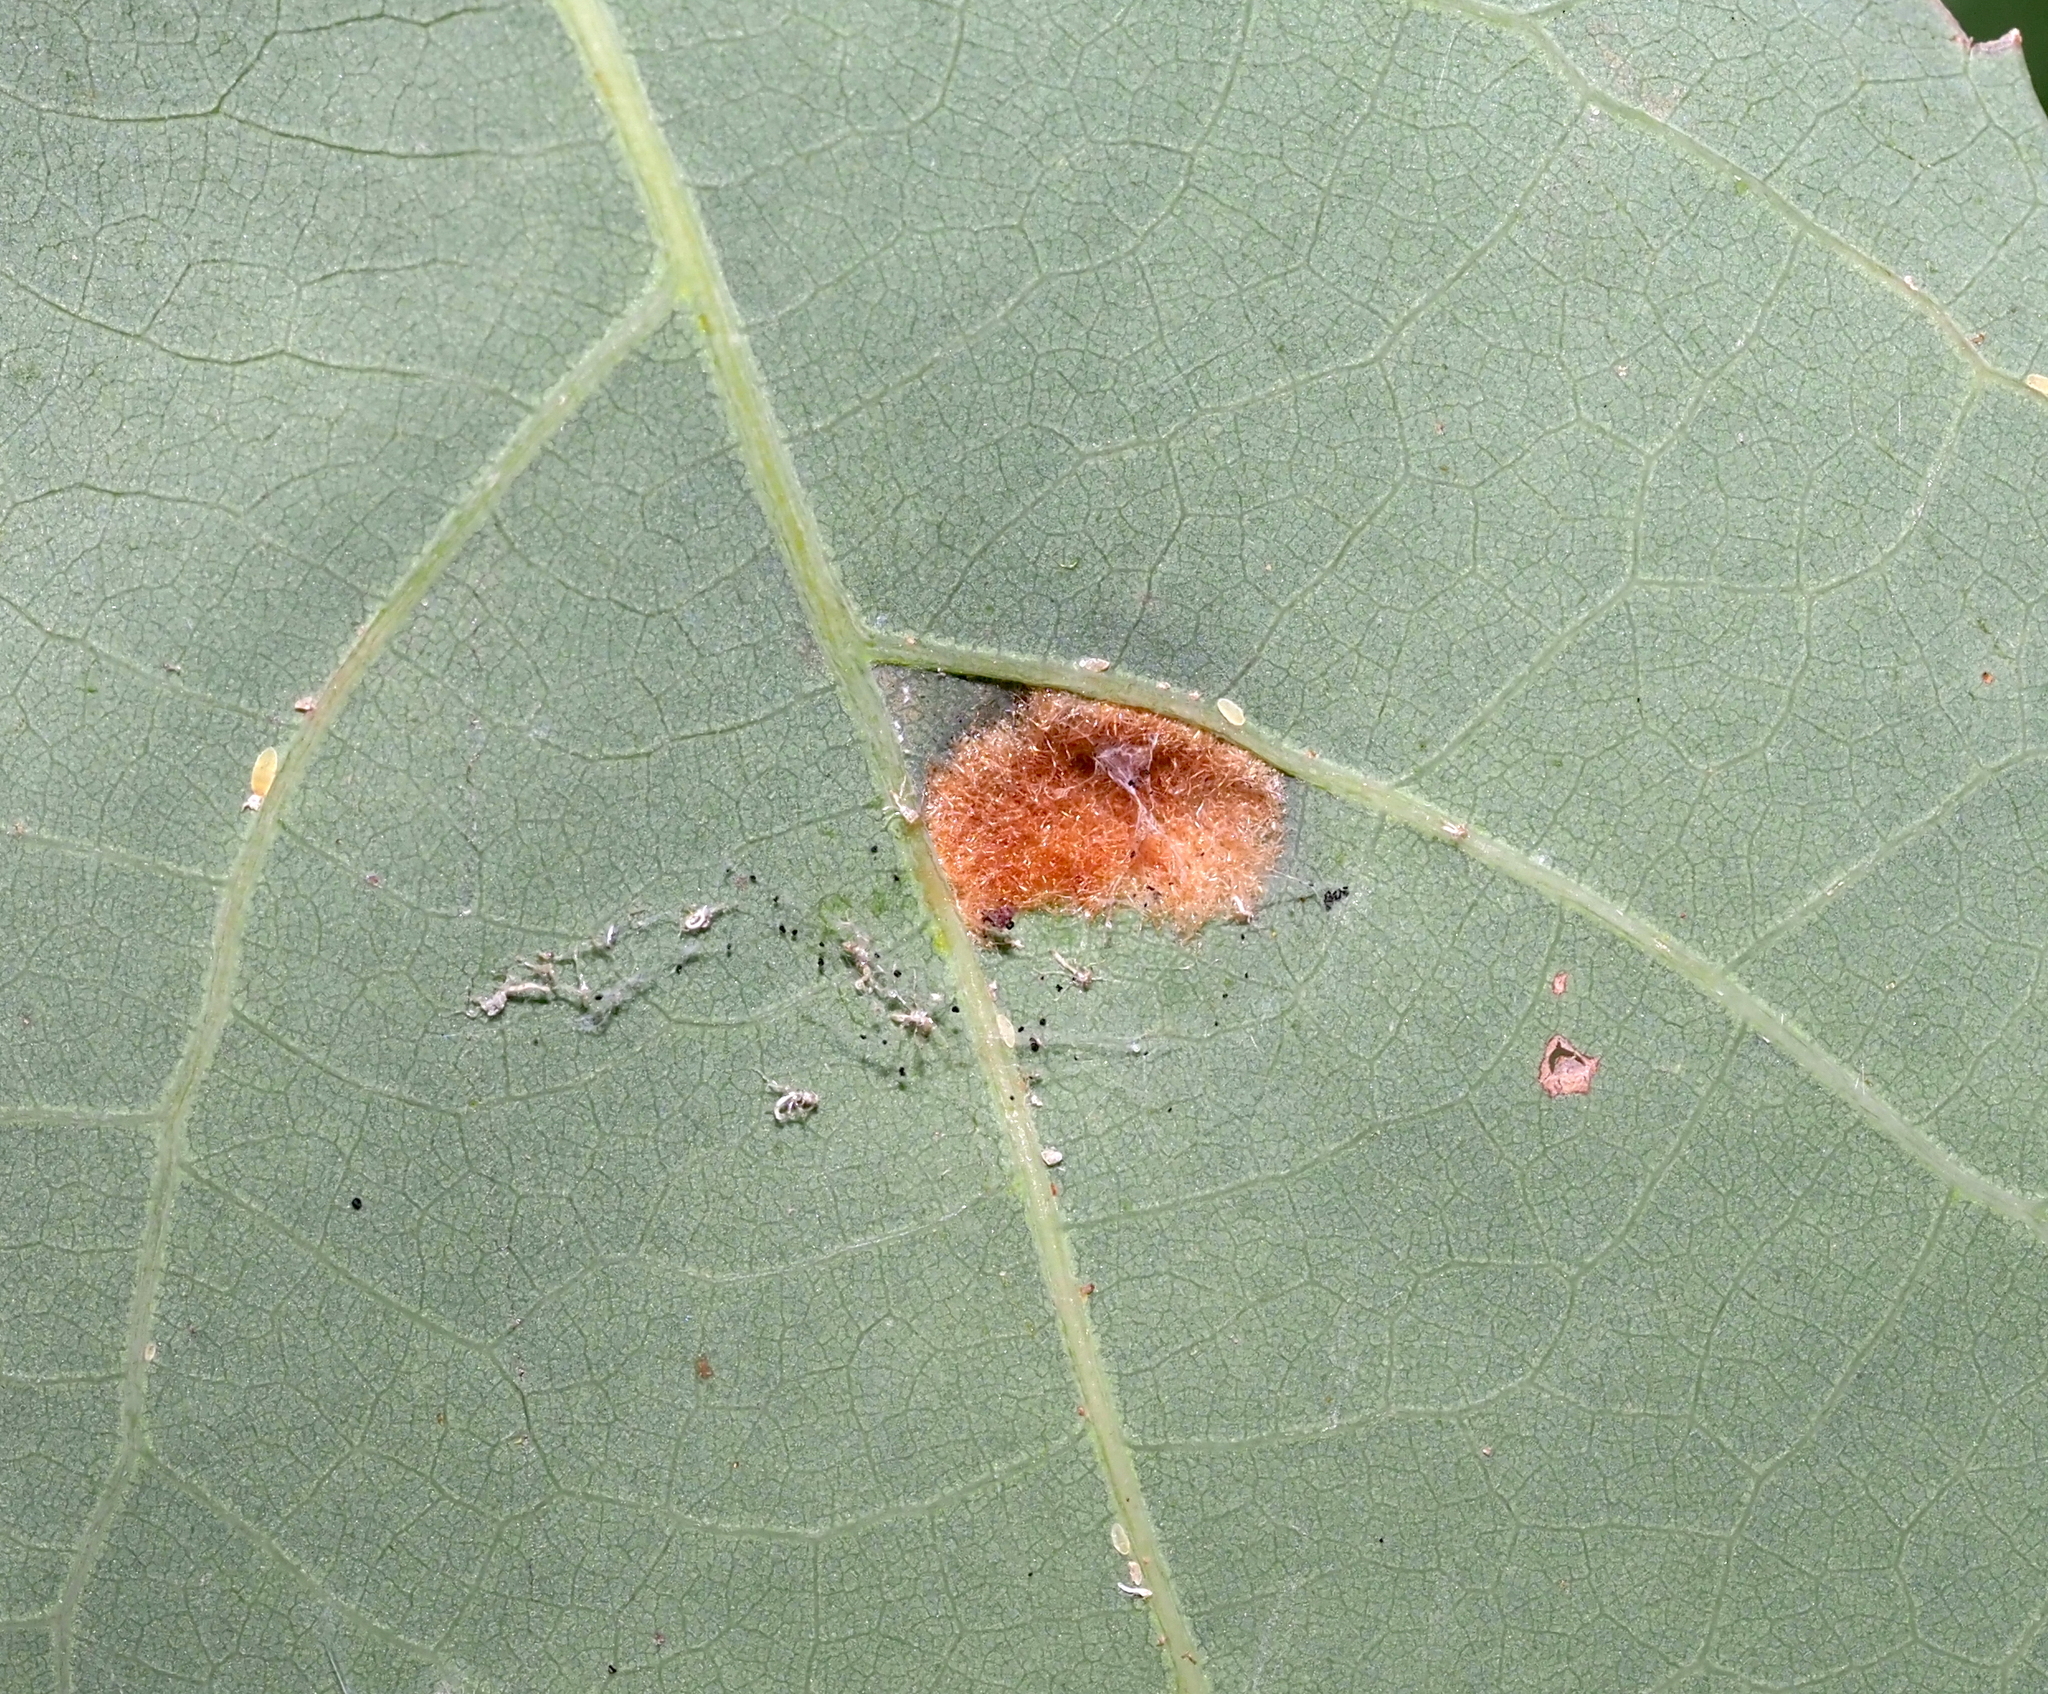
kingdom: Animalia
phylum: Arthropoda
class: Arachnida
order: Trombidiformes
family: Eriophyidae
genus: Aceria
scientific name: Aceria
